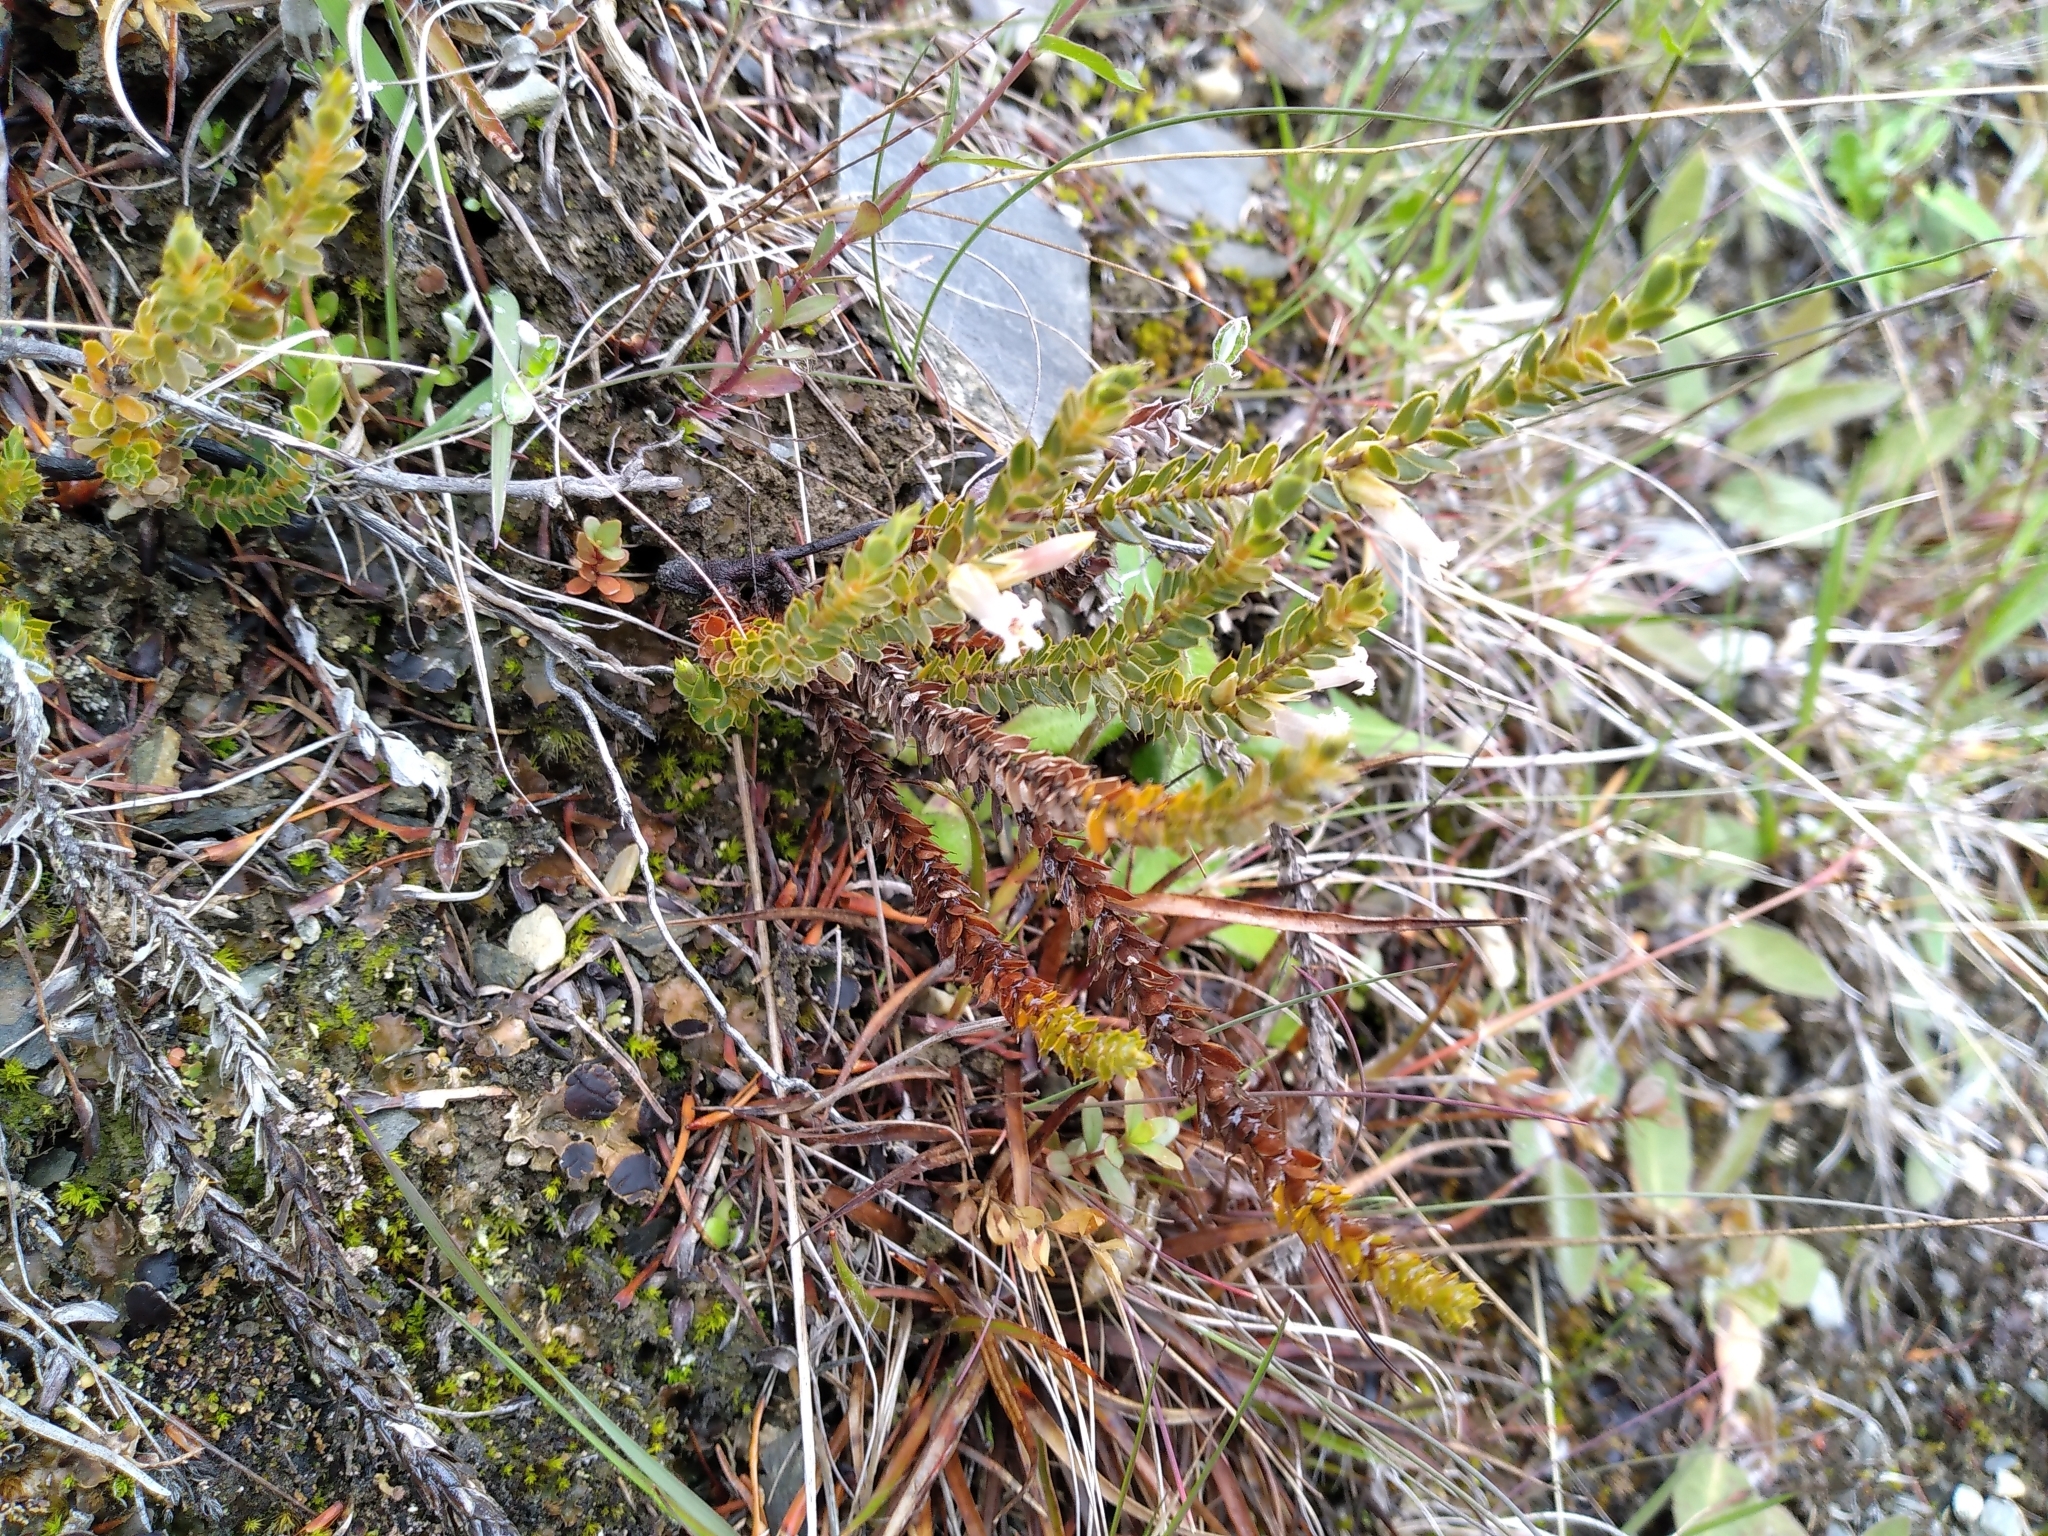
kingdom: Plantae
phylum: Tracheophyta
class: Magnoliopsida
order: Ericales
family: Ericaceae
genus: Styphelia
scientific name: Styphelia nesophila
